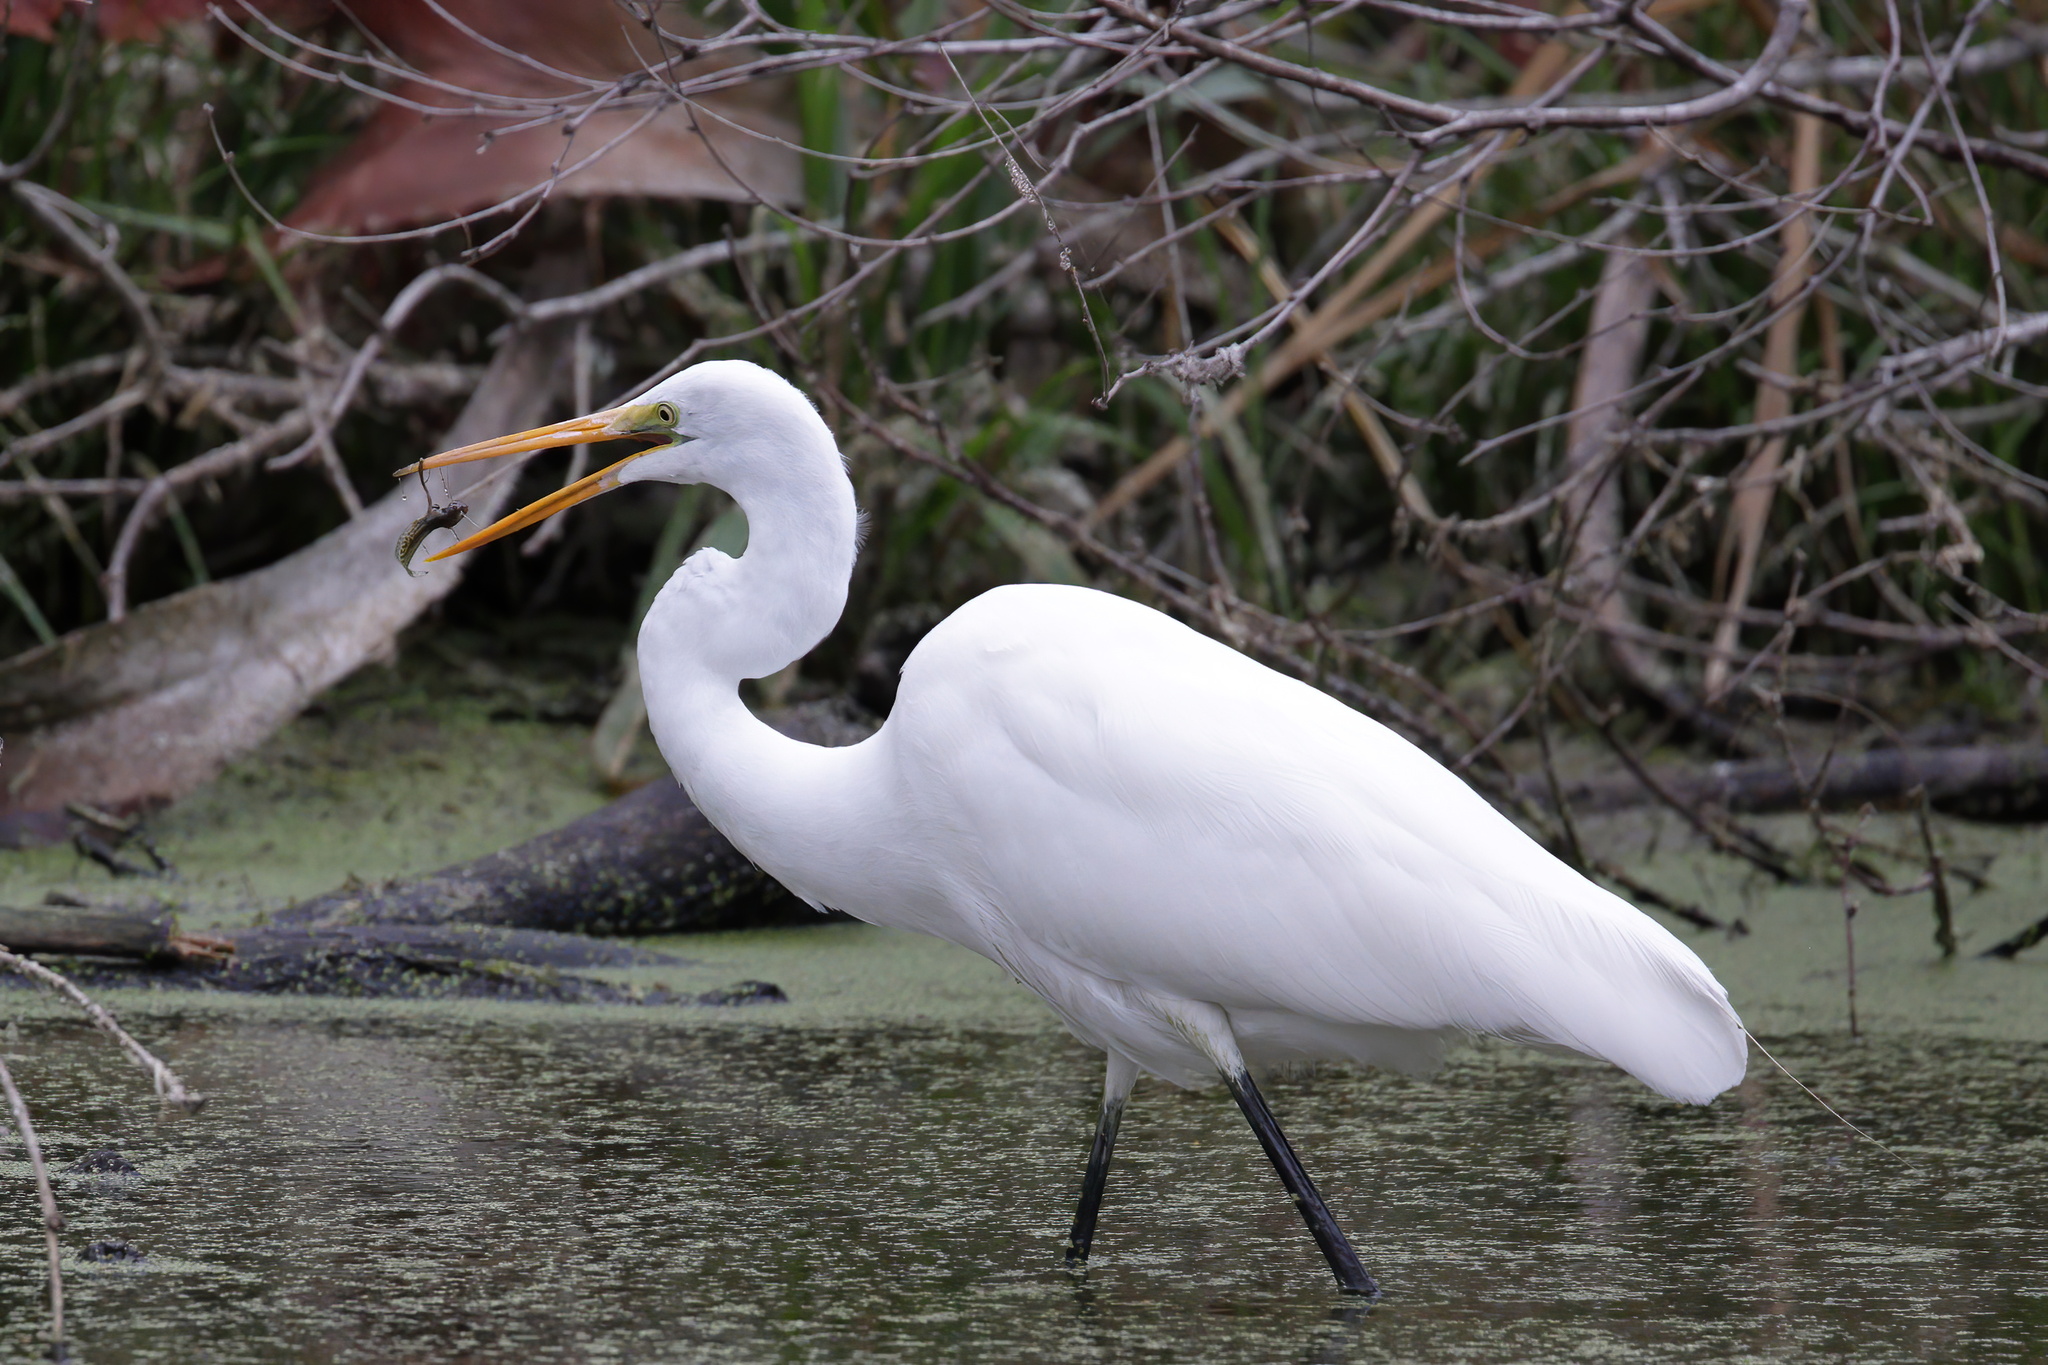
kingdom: Animalia
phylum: Chordata
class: Aves
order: Pelecaniformes
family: Ardeidae
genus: Ardea
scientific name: Ardea alba
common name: Great egret
